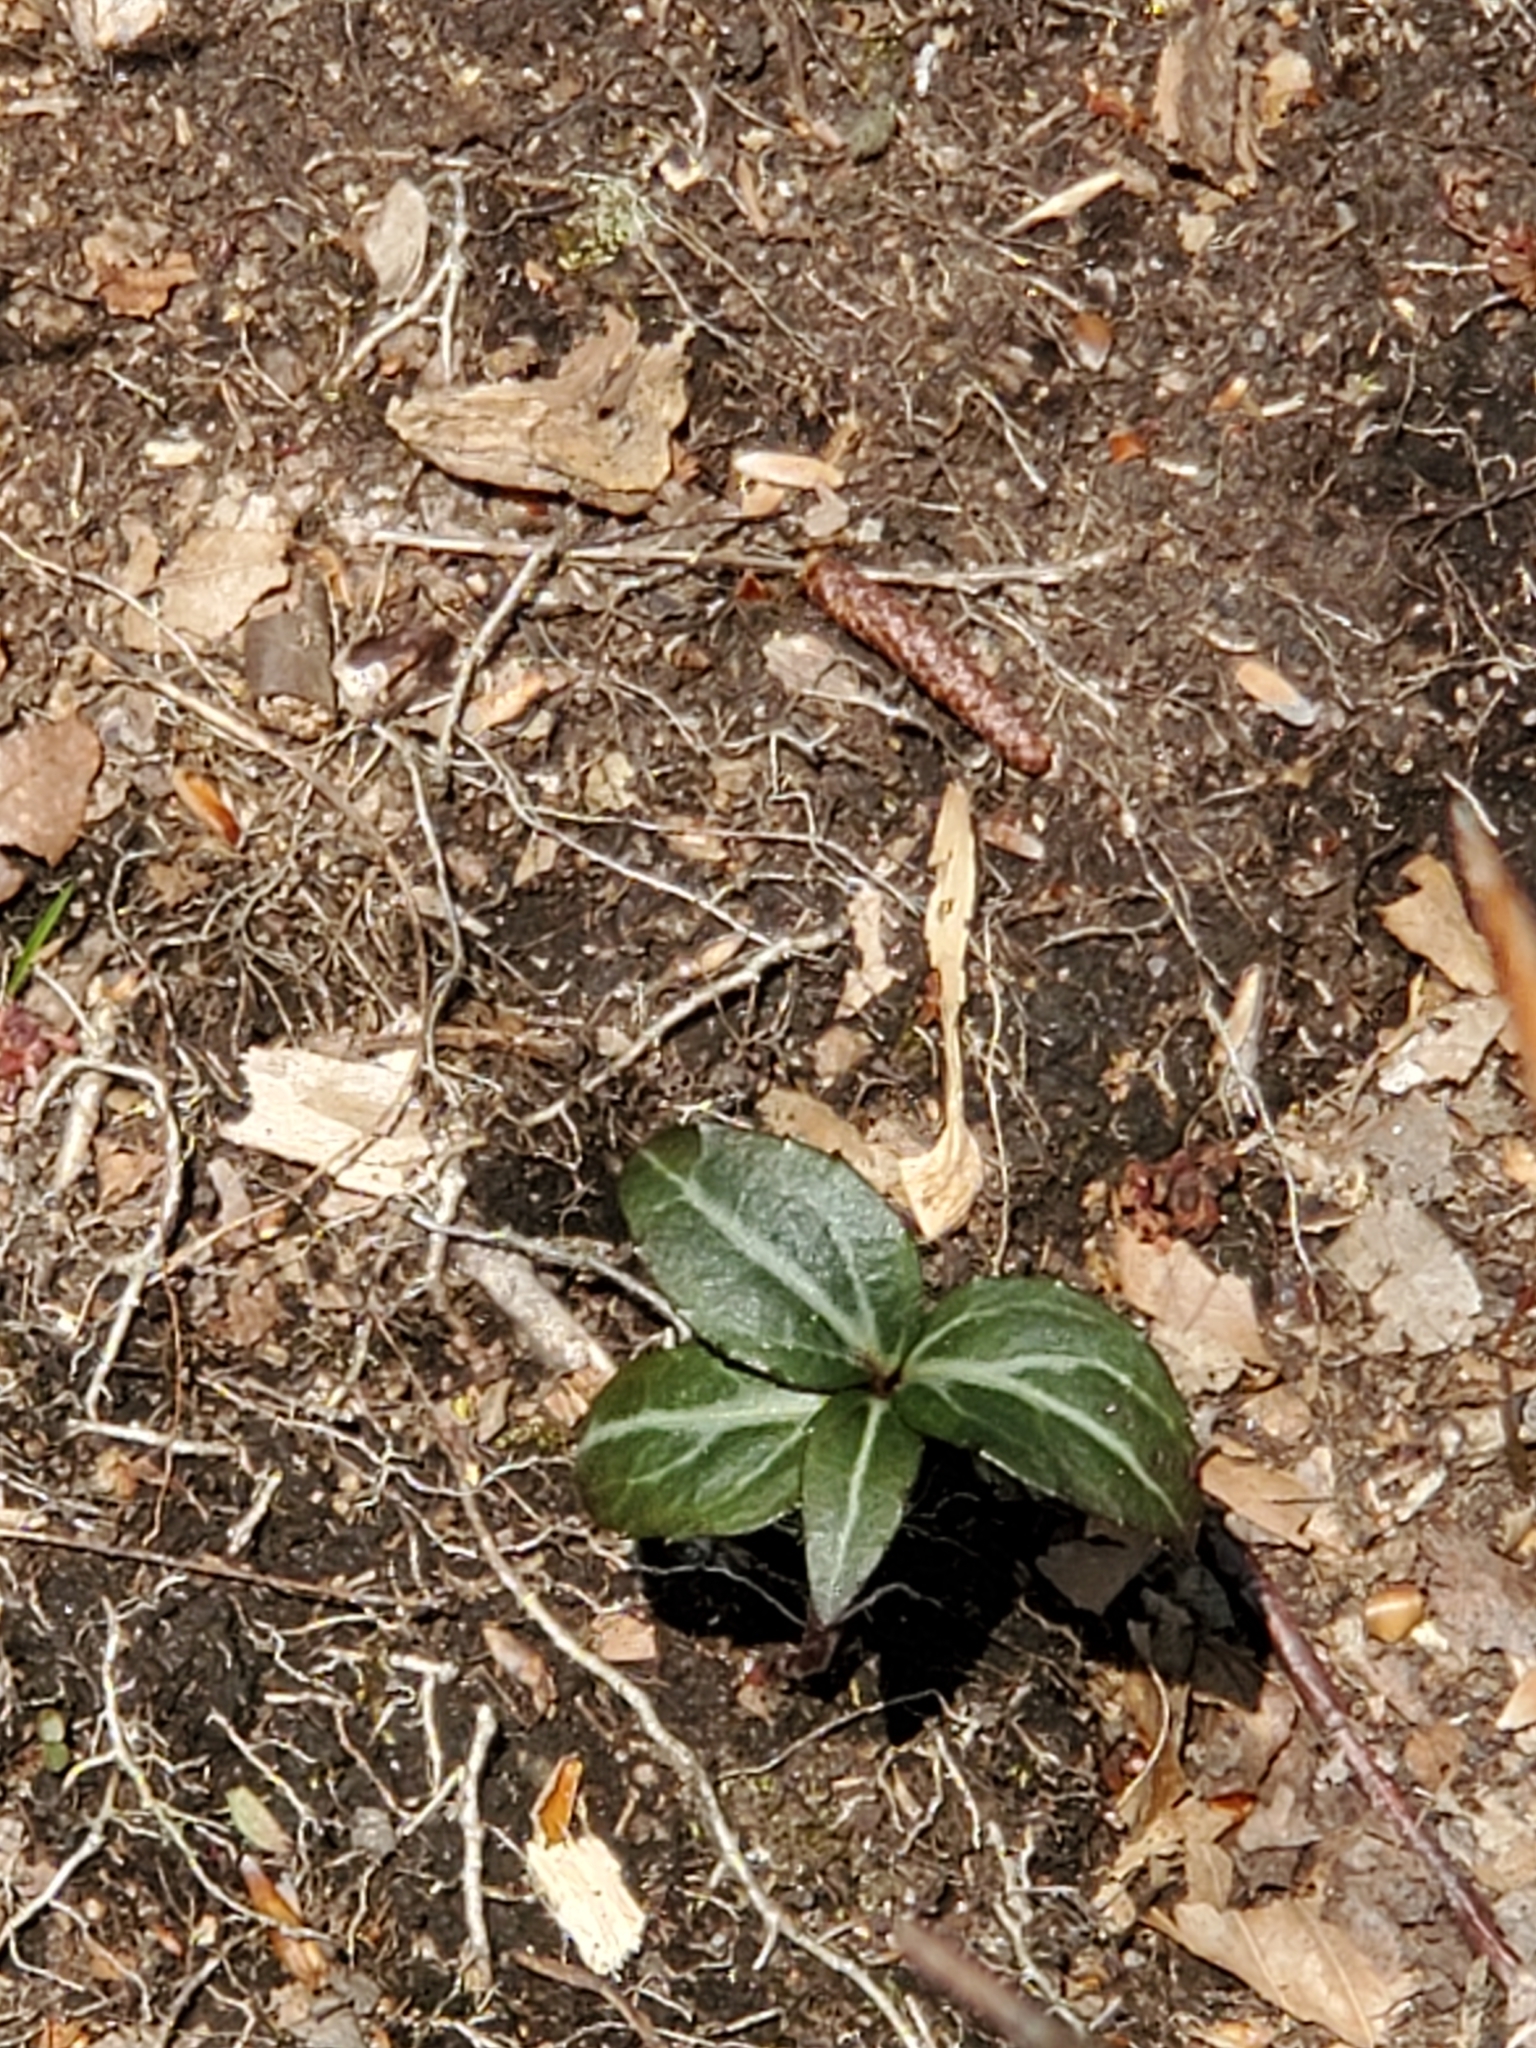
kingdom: Plantae
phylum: Tracheophyta
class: Magnoliopsida
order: Ericales
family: Ericaceae
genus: Chimaphila
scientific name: Chimaphila maculata
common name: Spotted pipsissewa
